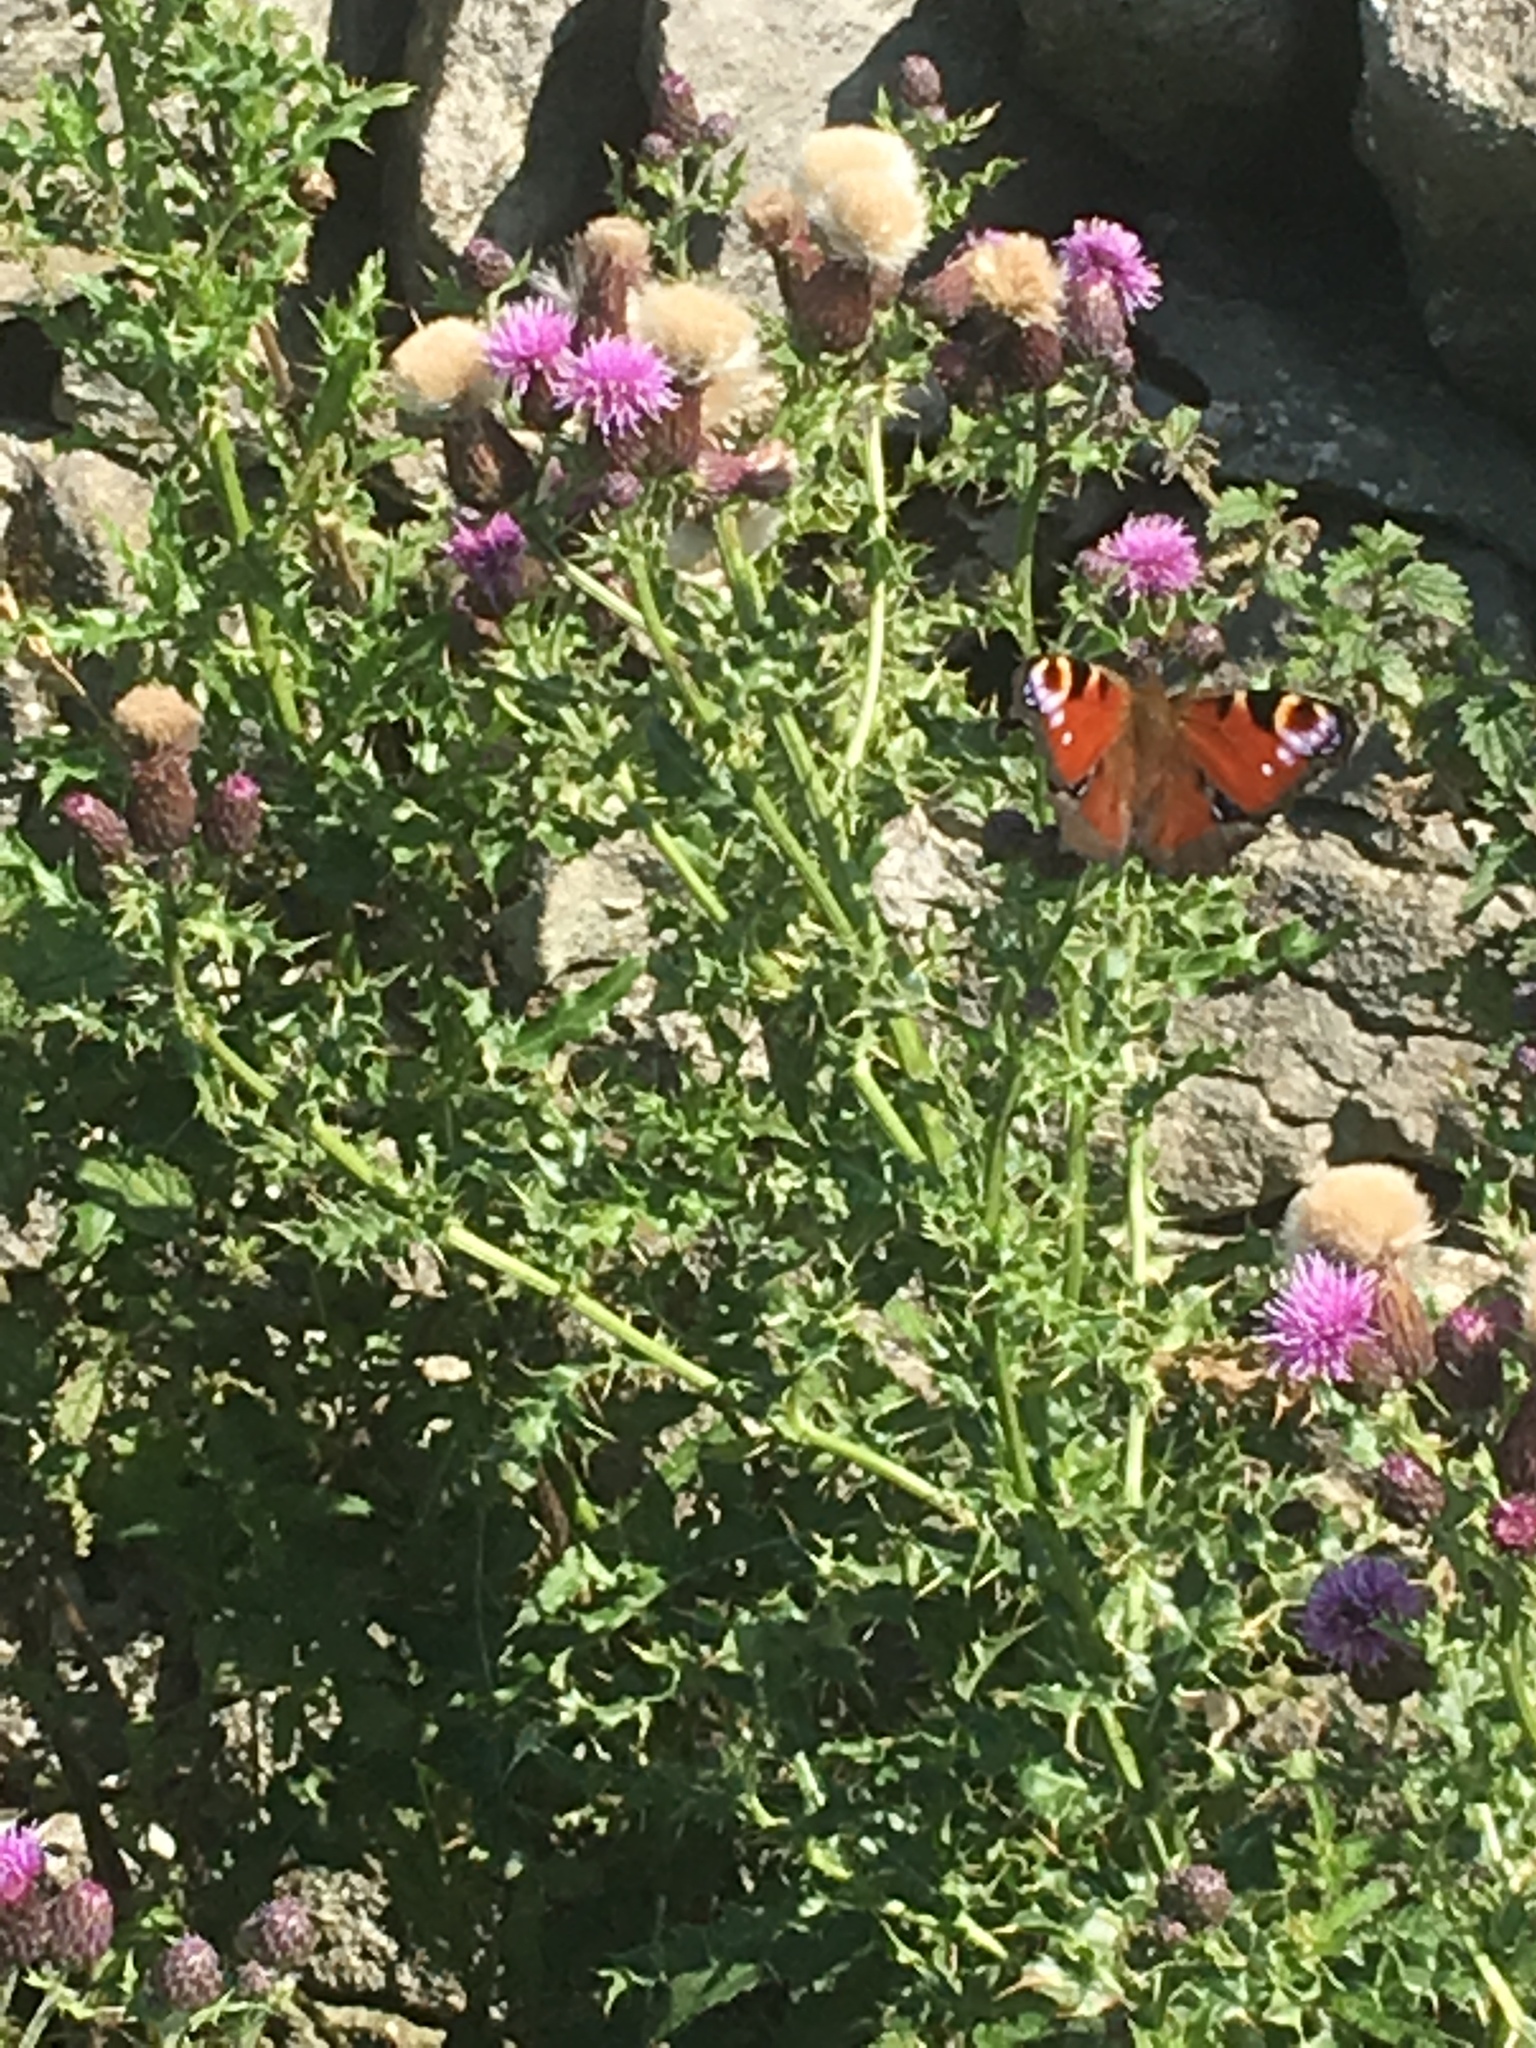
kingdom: Animalia
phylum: Arthropoda
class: Insecta
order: Lepidoptera
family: Nymphalidae
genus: Aglais
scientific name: Aglais io
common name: Peacock
